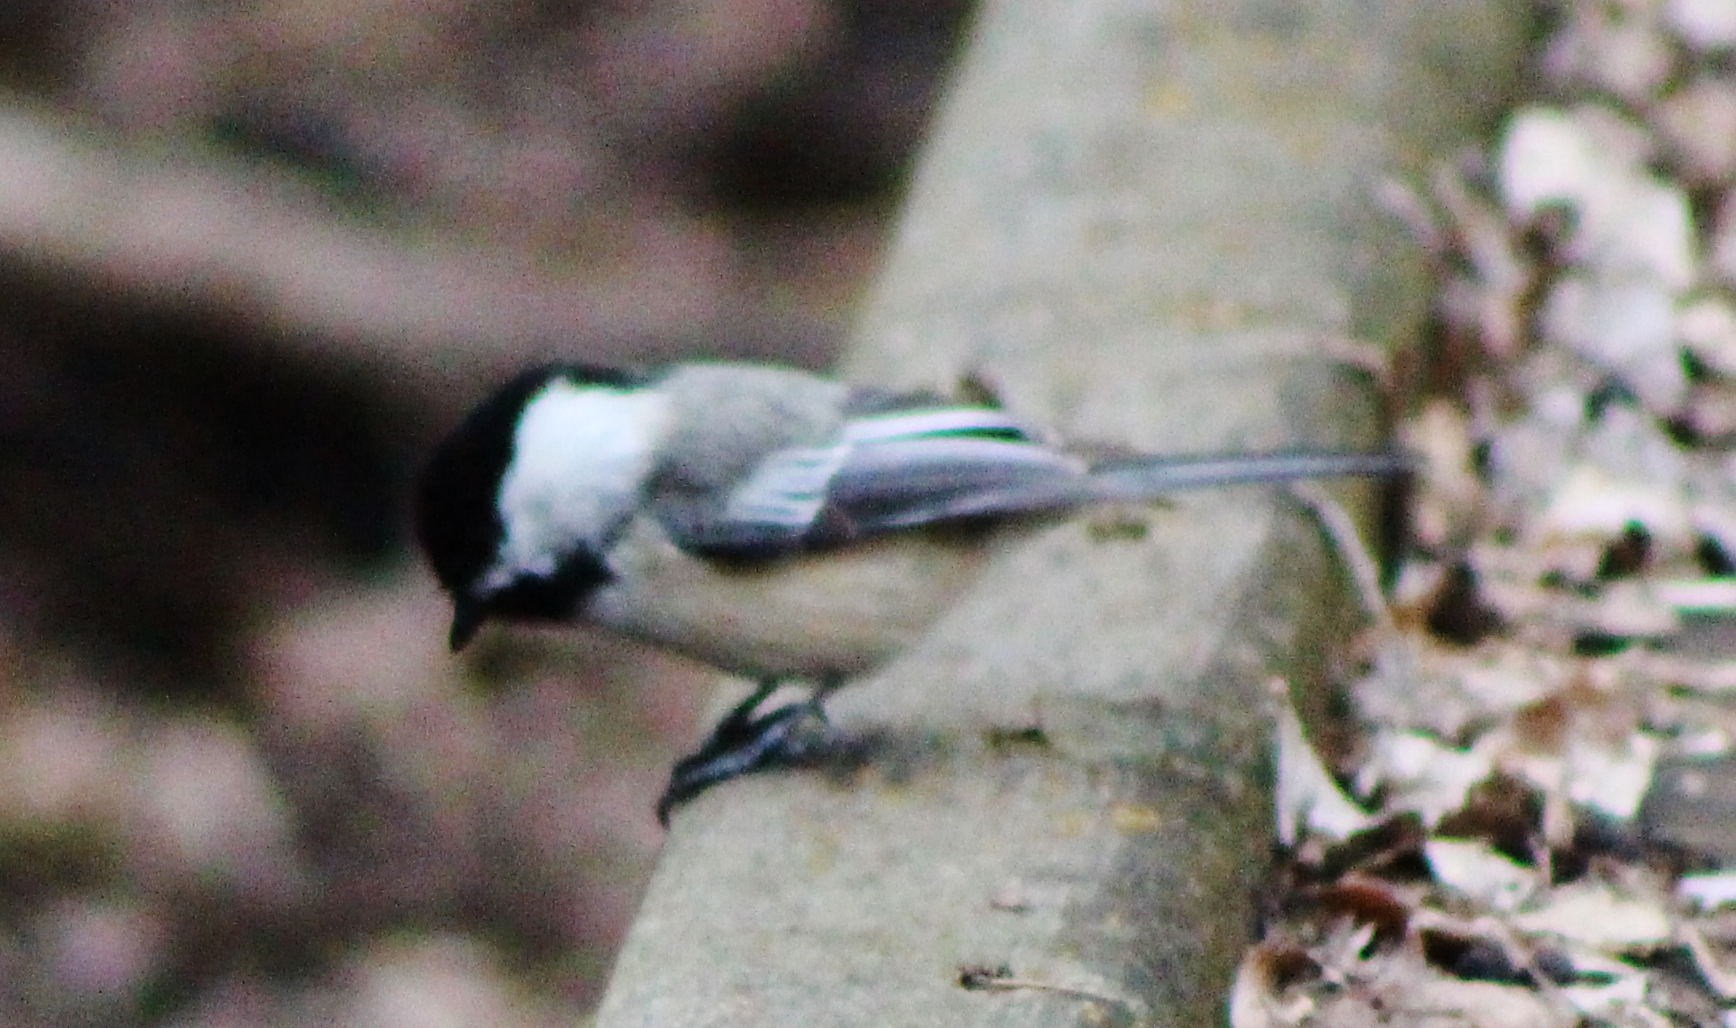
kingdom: Animalia
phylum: Chordata
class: Aves
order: Passeriformes
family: Paridae
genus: Poecile
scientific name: Poecile atricapillus
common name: Black-capped chickadee
